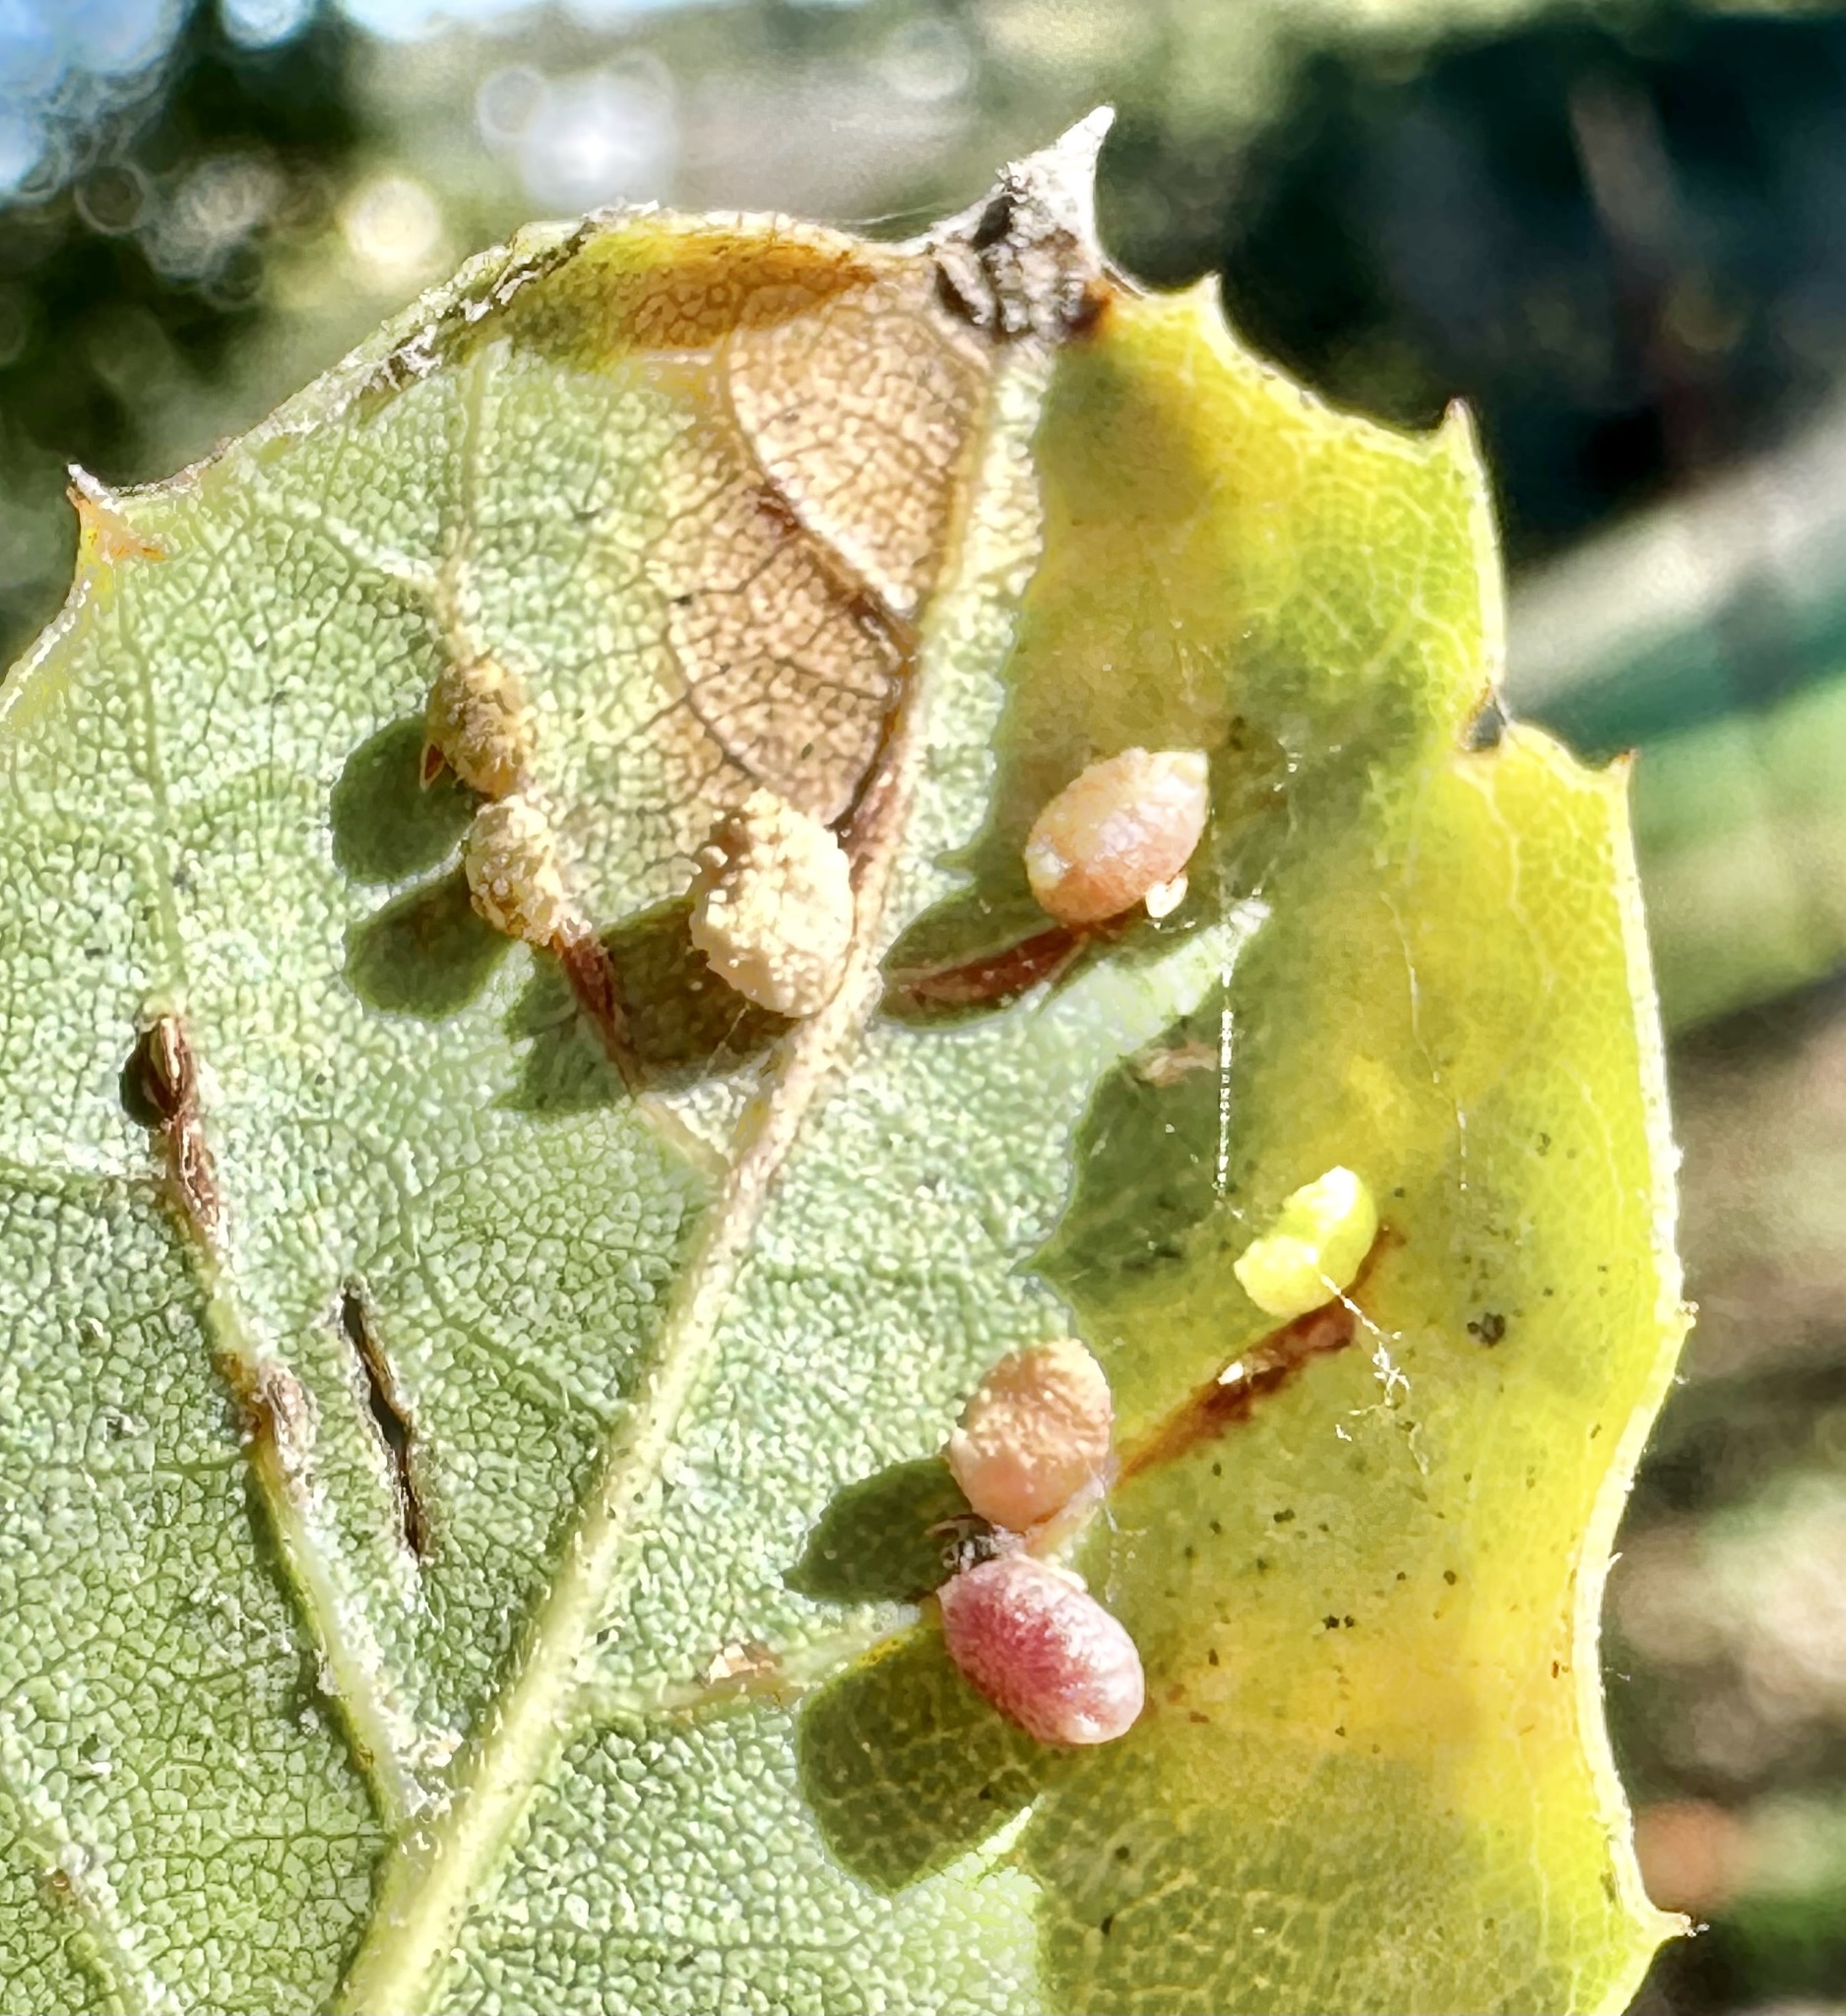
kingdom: Animalia
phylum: Arthropoda
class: Insecta
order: Hymenoptera
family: Cynipidae
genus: Dryocosmus
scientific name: Dryocosmus
